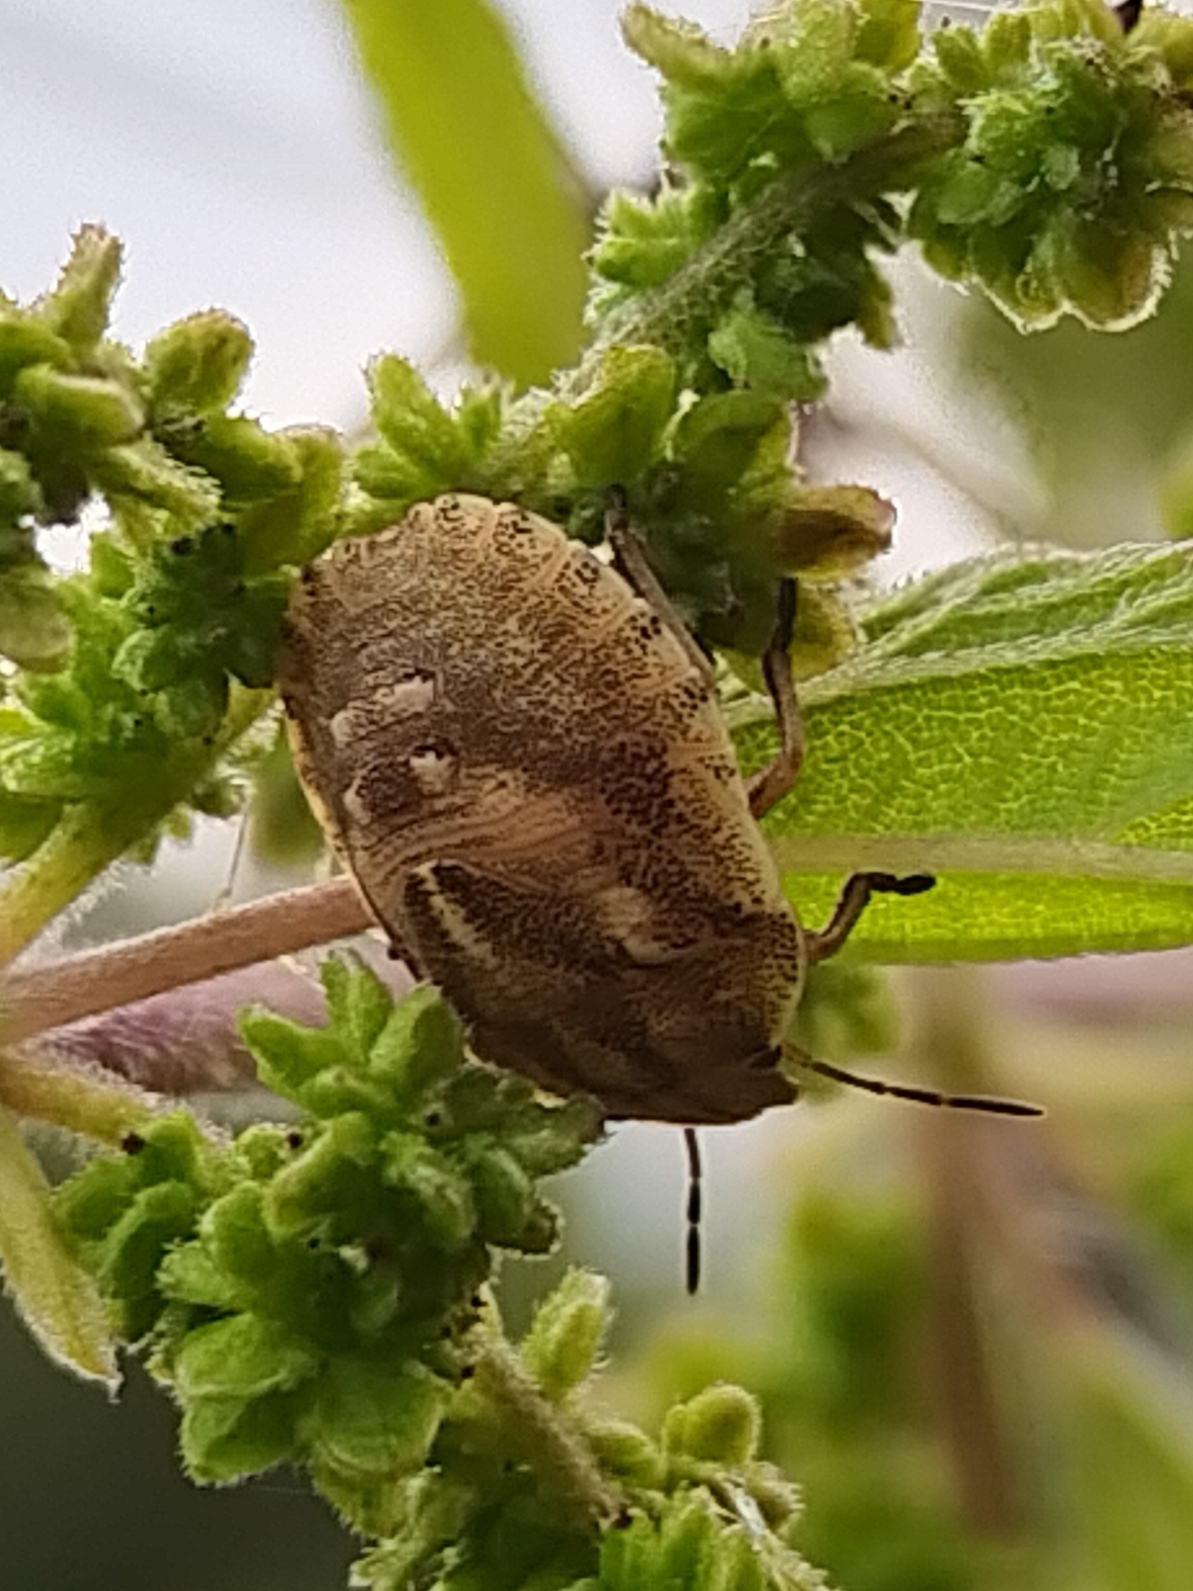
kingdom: Animalia
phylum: Arthropoda
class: Insecta
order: Hemiptera
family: Scutelleridae
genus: Eurygaster
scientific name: Eurygaster testudinaria
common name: Tortoise bug
